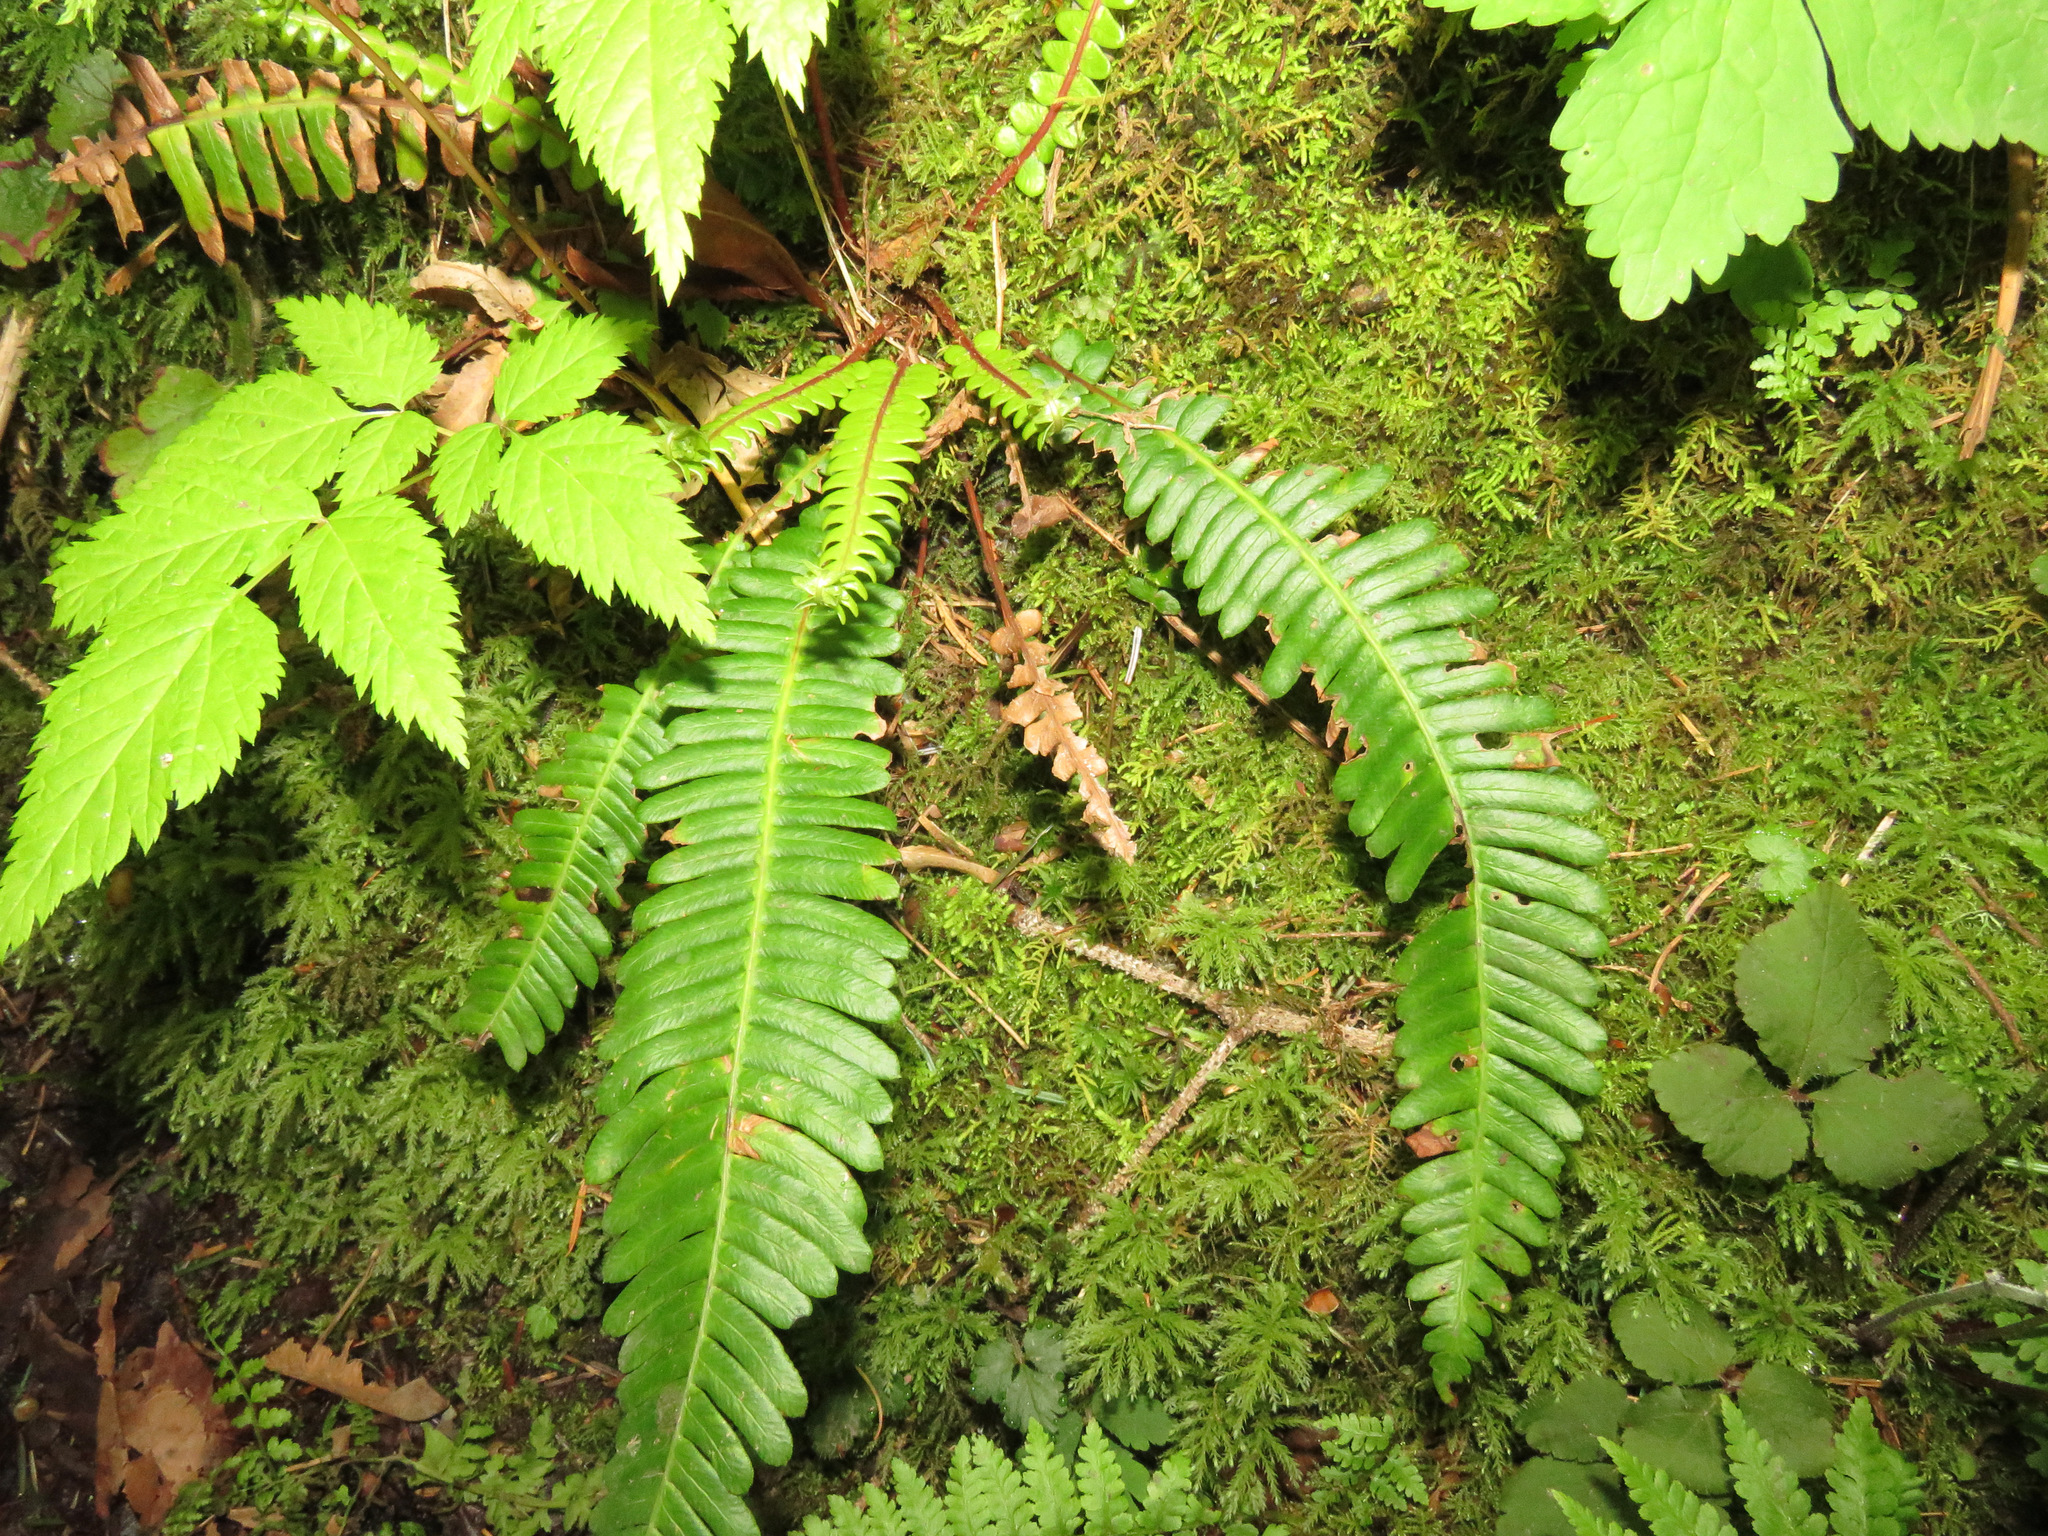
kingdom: Plantae
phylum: Tracheophyta
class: Polypodiopsida
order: Polypodiales
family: Blechnaceae
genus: Struthiopteris
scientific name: Struthiopteris spicant
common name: Deer fern
